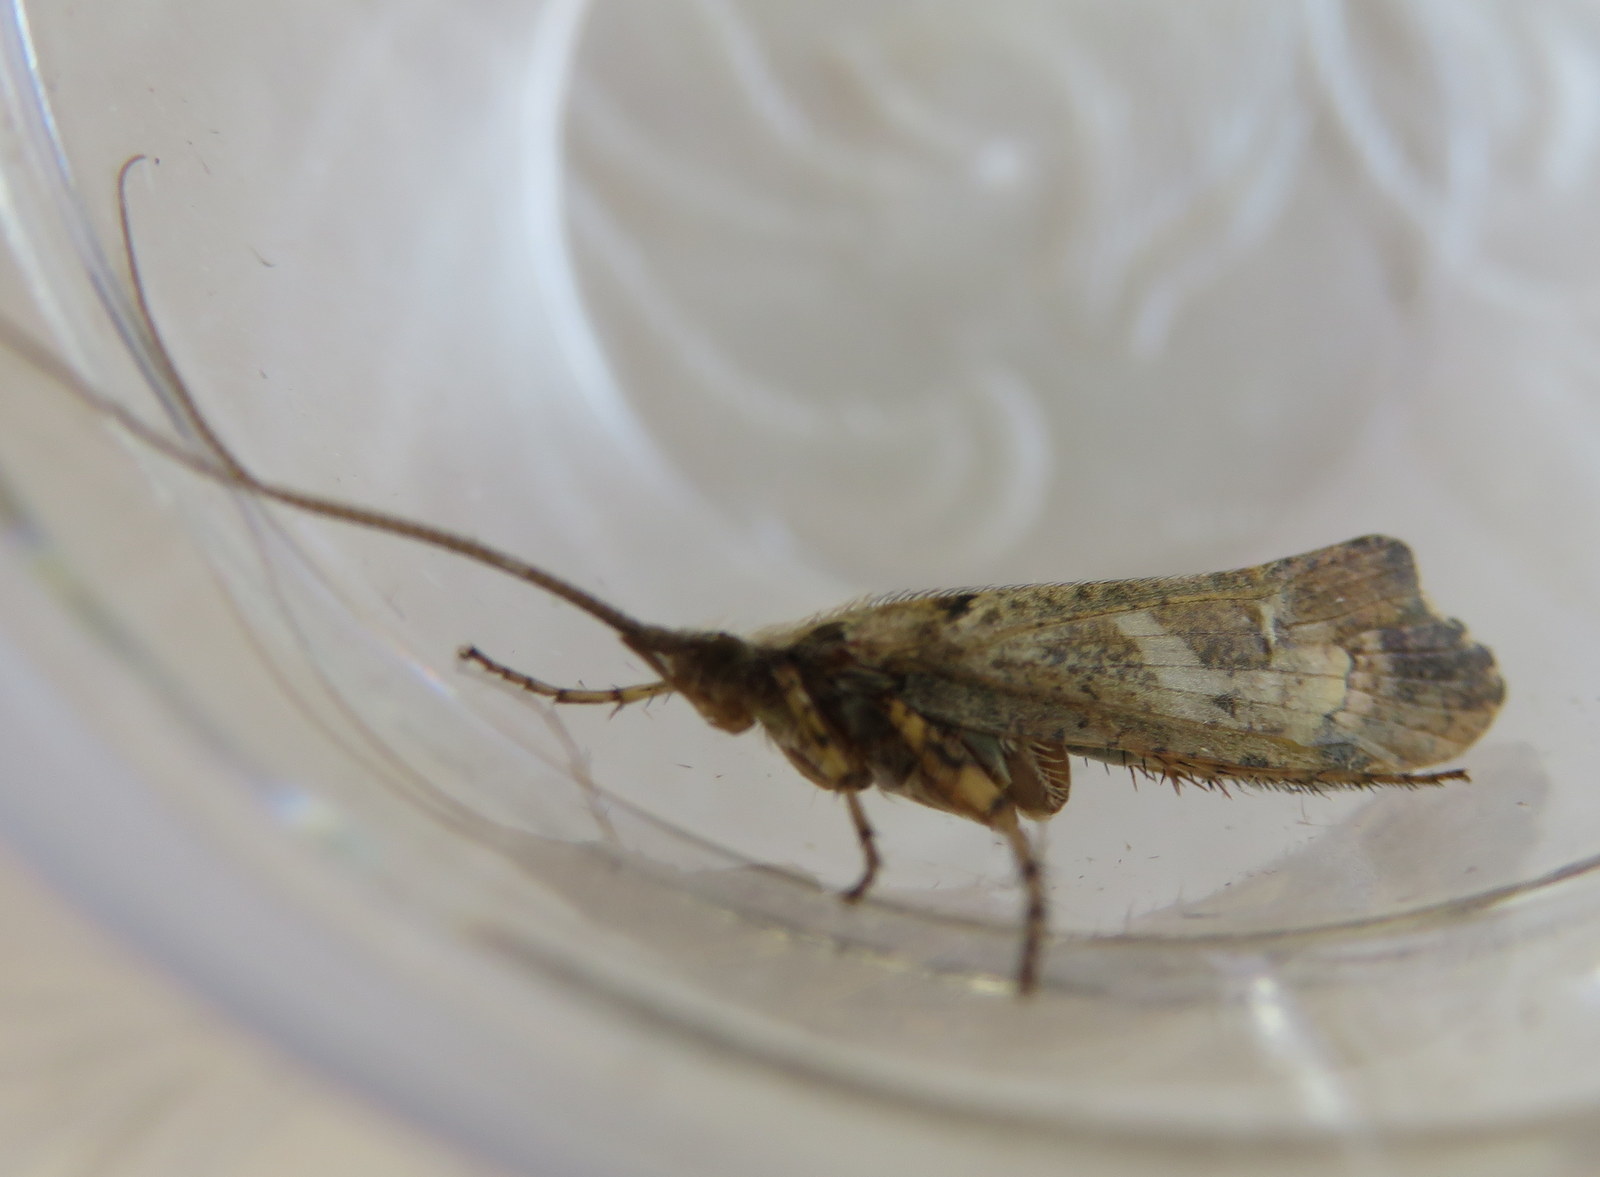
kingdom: Animalia
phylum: Arthropoda
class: Insecta
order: Trichoptera
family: Limnephilidae
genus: Glyphotaelius
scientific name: Glyphotaelius pellucidus
